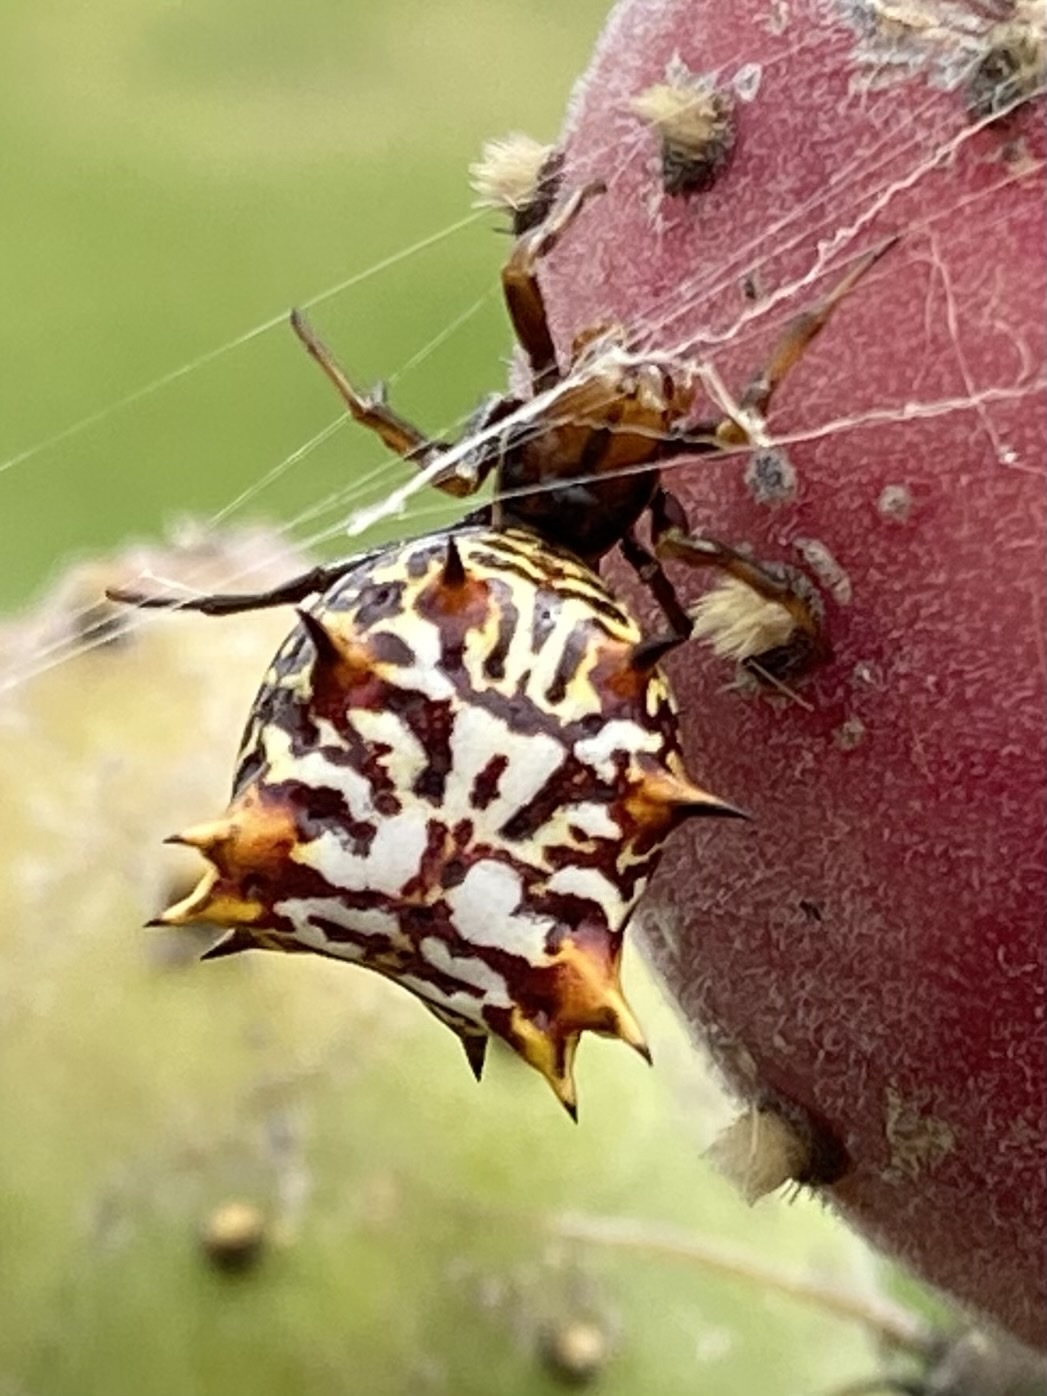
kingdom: Animalia
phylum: Arthropoda
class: Arachnida
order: Araneae
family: Araneidae
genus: Micrathena
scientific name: Micrathena gracilis
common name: Orb weavers
